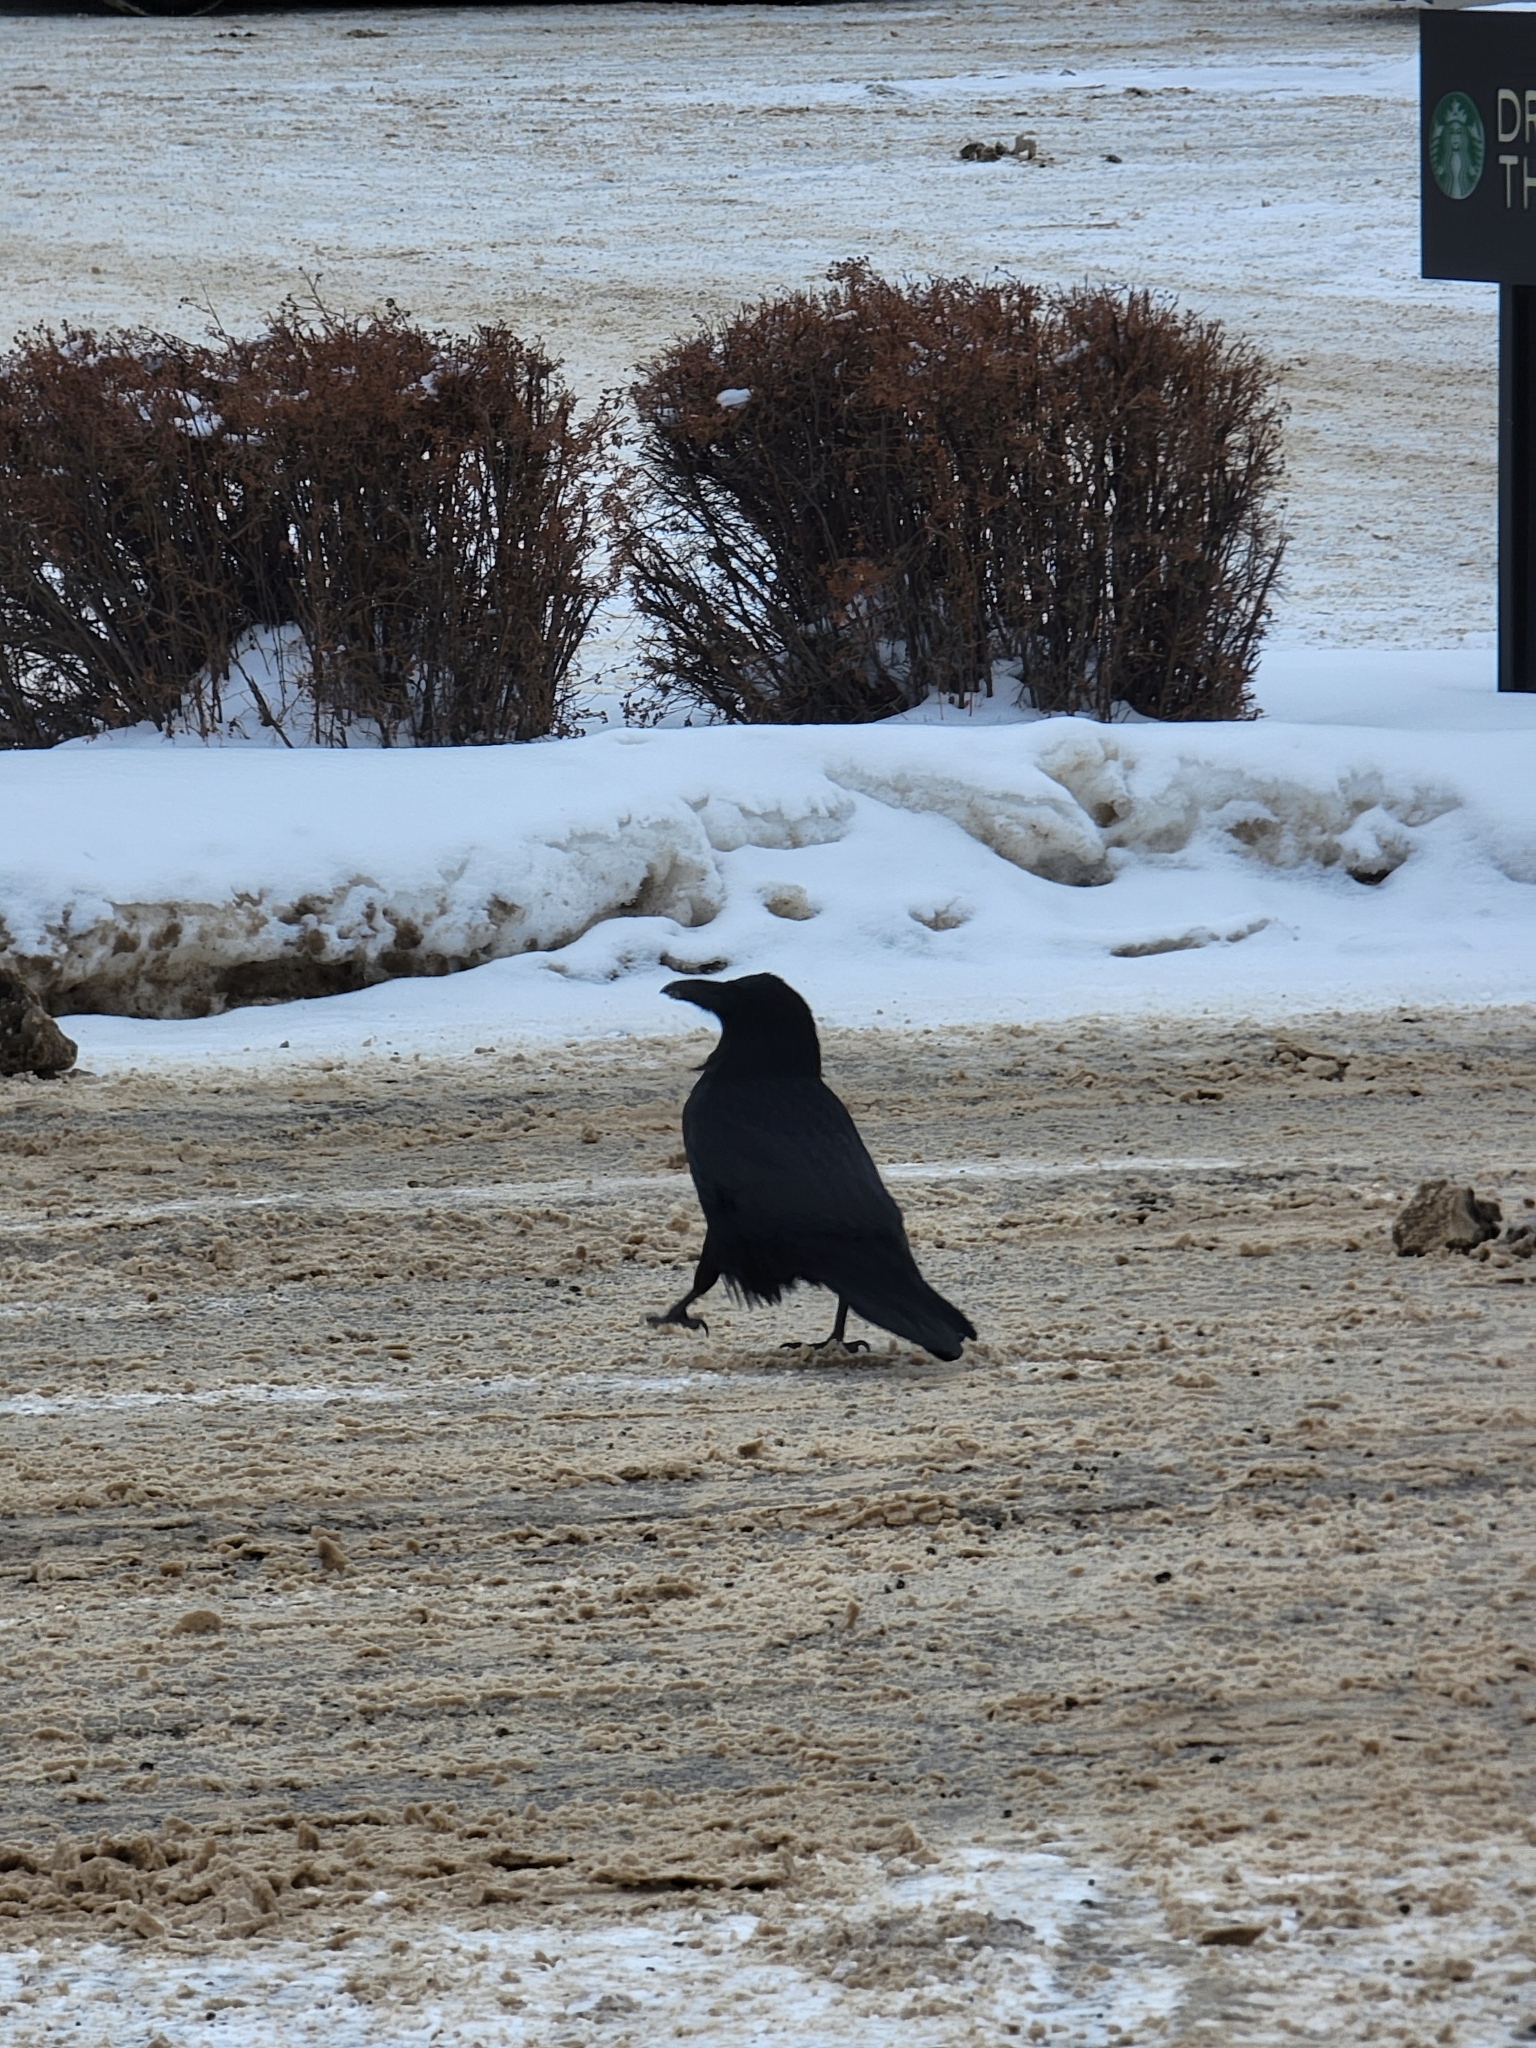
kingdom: Animalia
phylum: Chordata
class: Aves
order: Passeriformes
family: Corvidae
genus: Corvus
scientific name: Corvus corax
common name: Common raven
